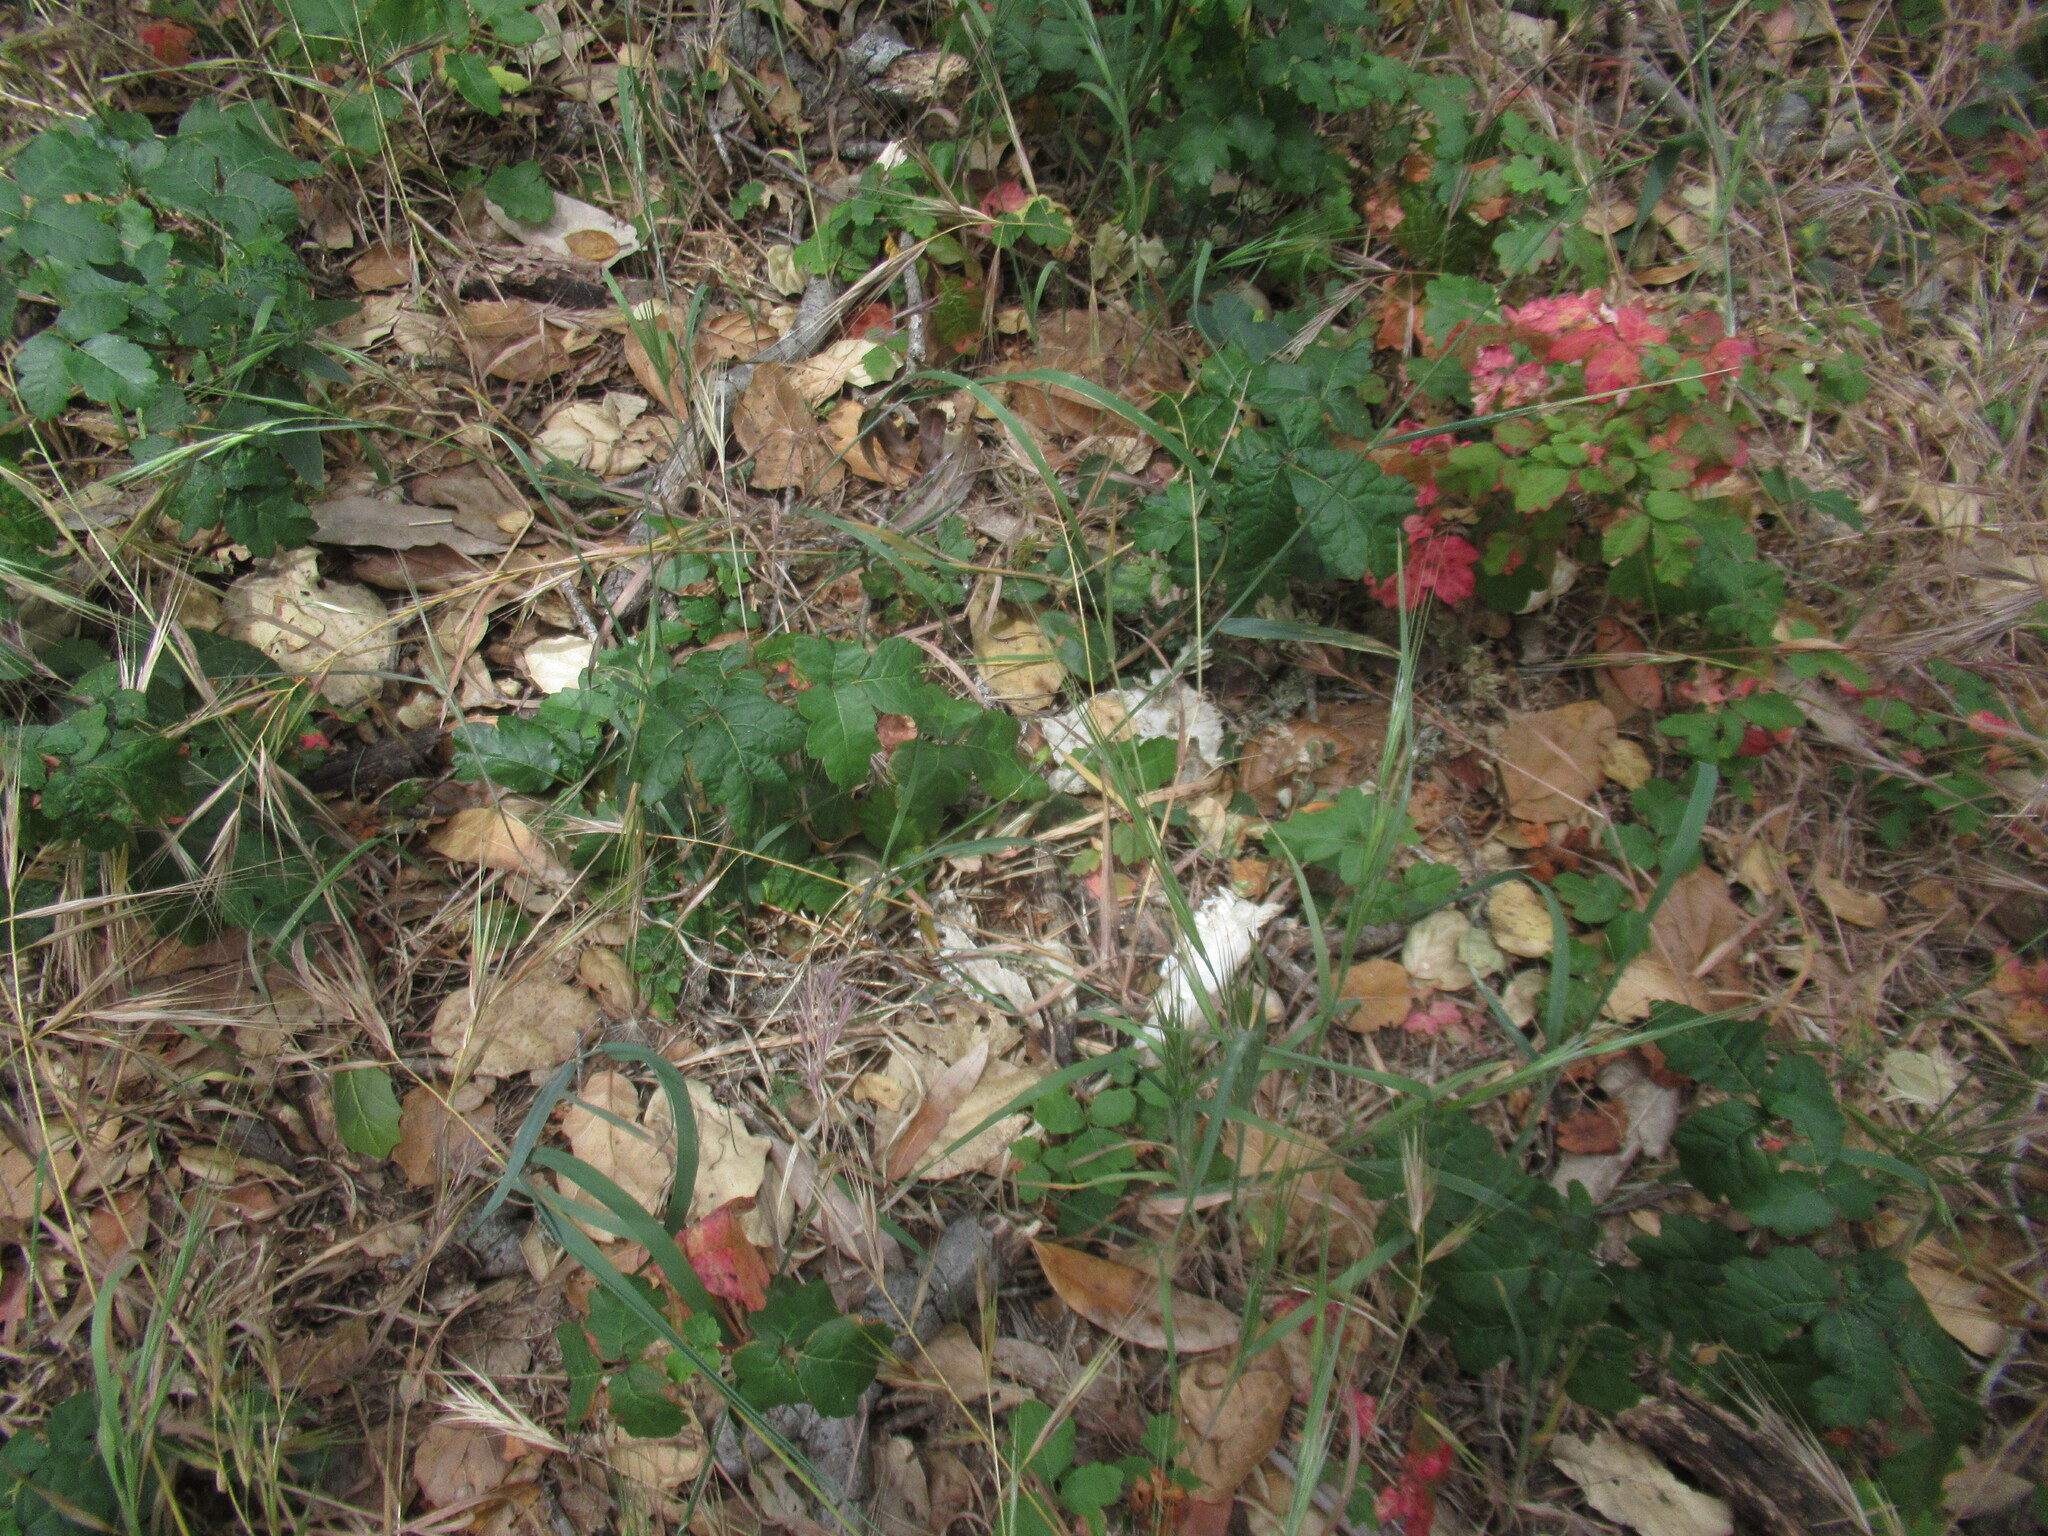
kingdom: Animalia
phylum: Chordata
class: Mammalia
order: Artiodactyla
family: Cervidae
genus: Odocoileus
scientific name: Odocoileus hemionus
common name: Mule deer
